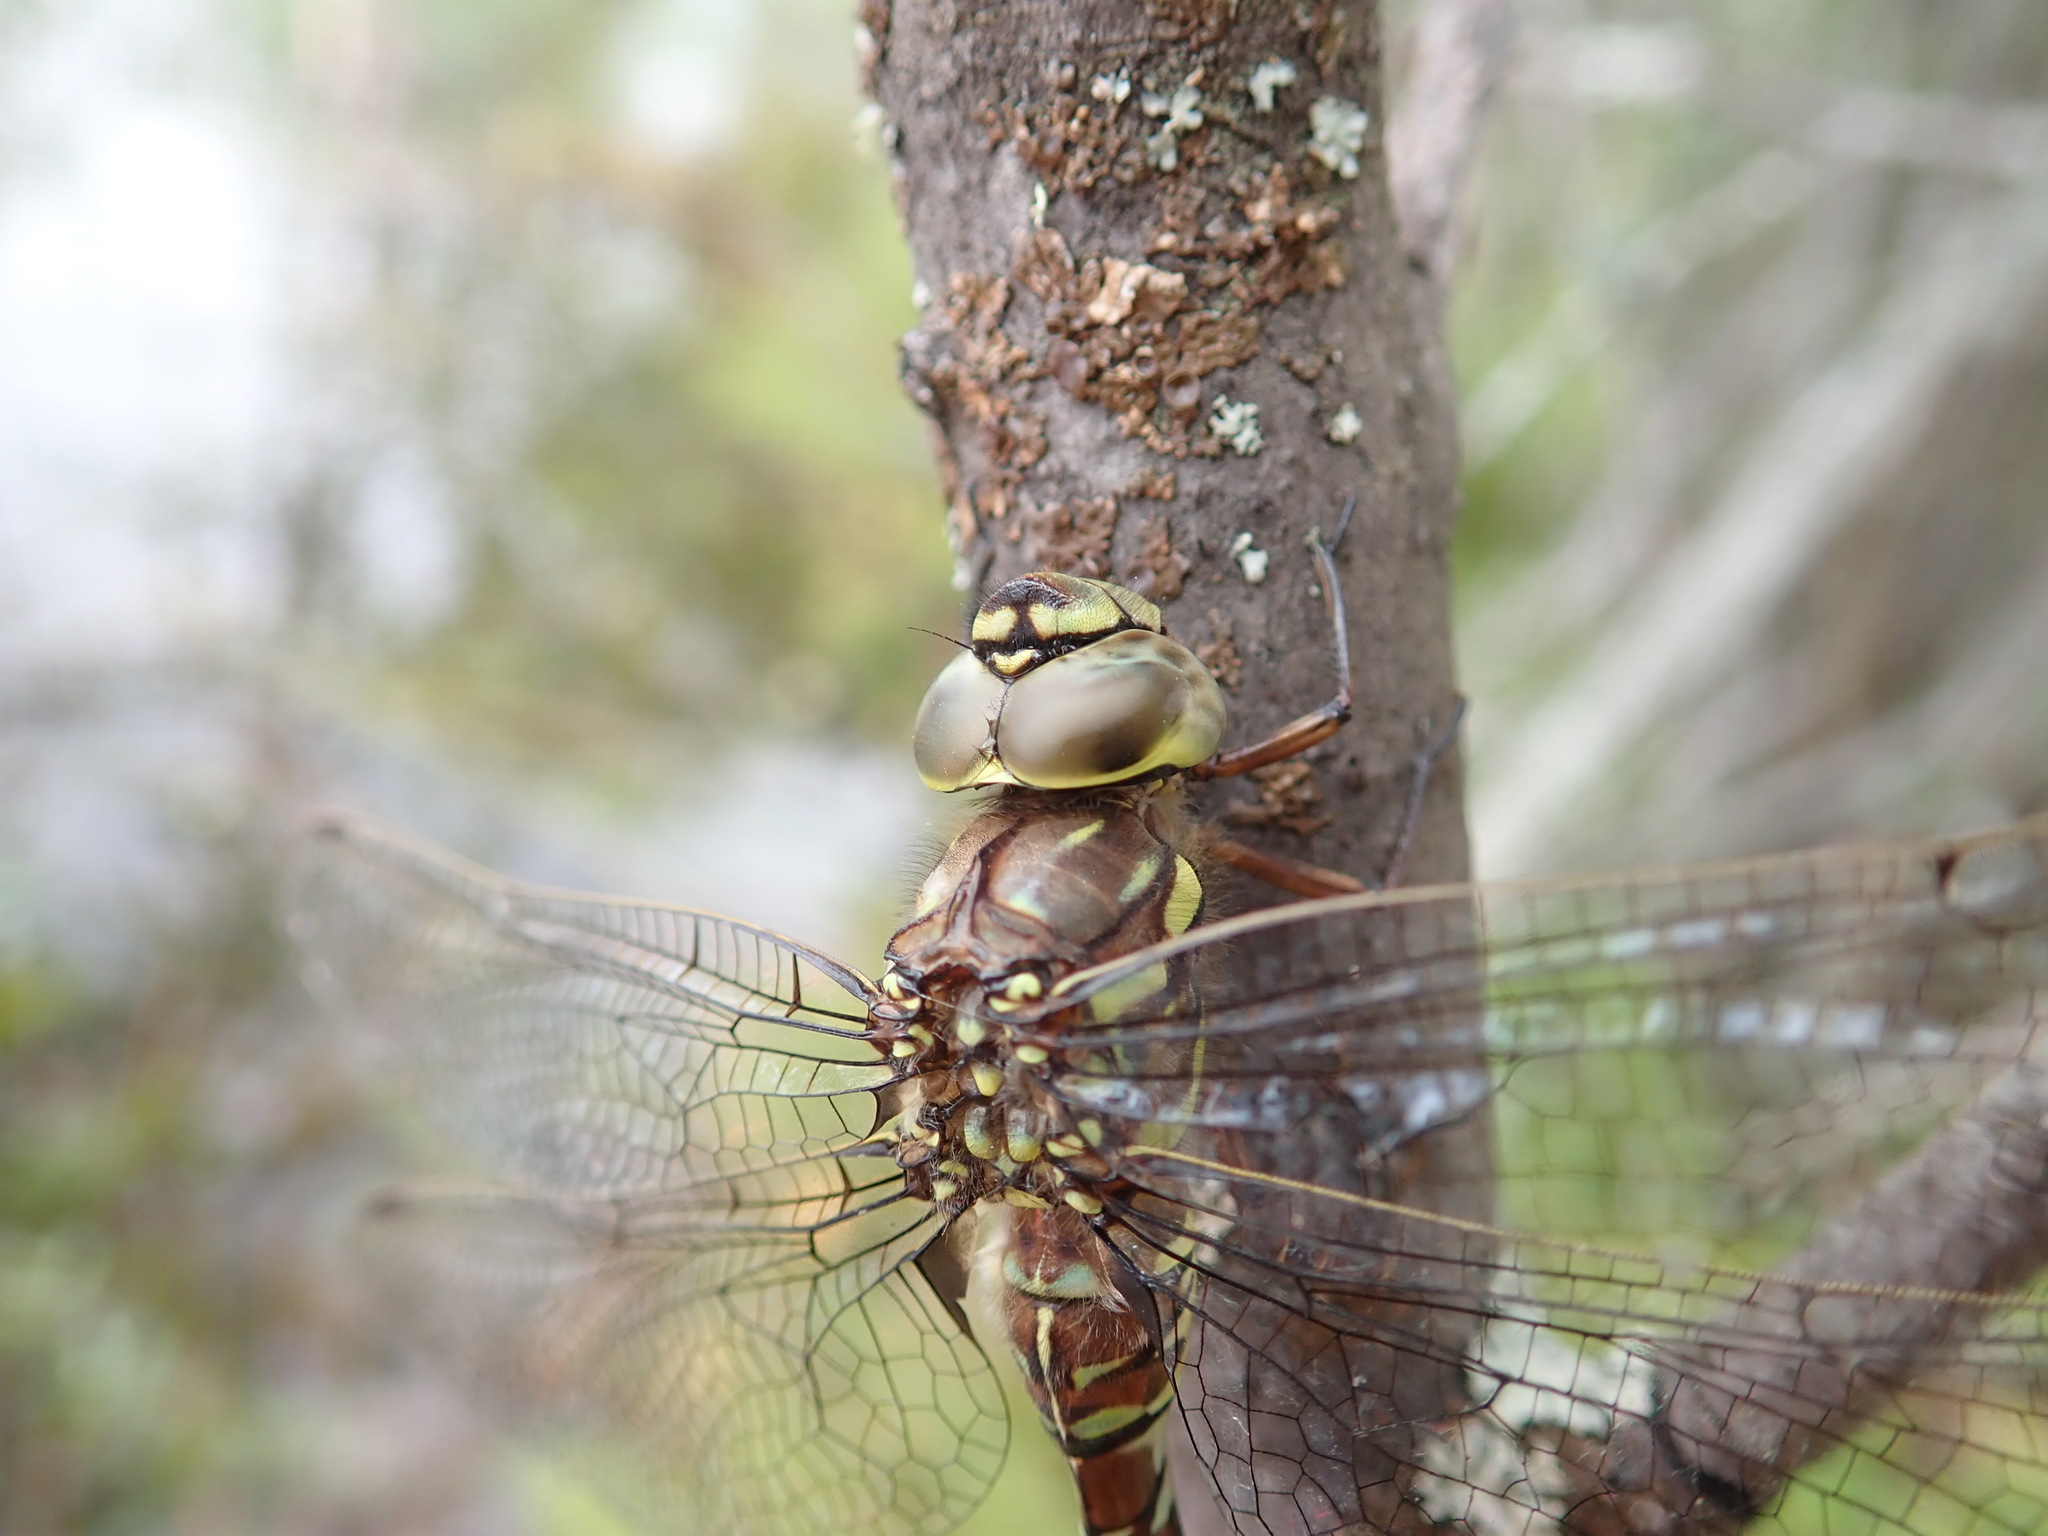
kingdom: Animalia
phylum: Arthropoda
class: Insecta
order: Odonata
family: Aeshnidae
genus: Aeshna
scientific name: Aeshna subarctica
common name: Subarctic darner
